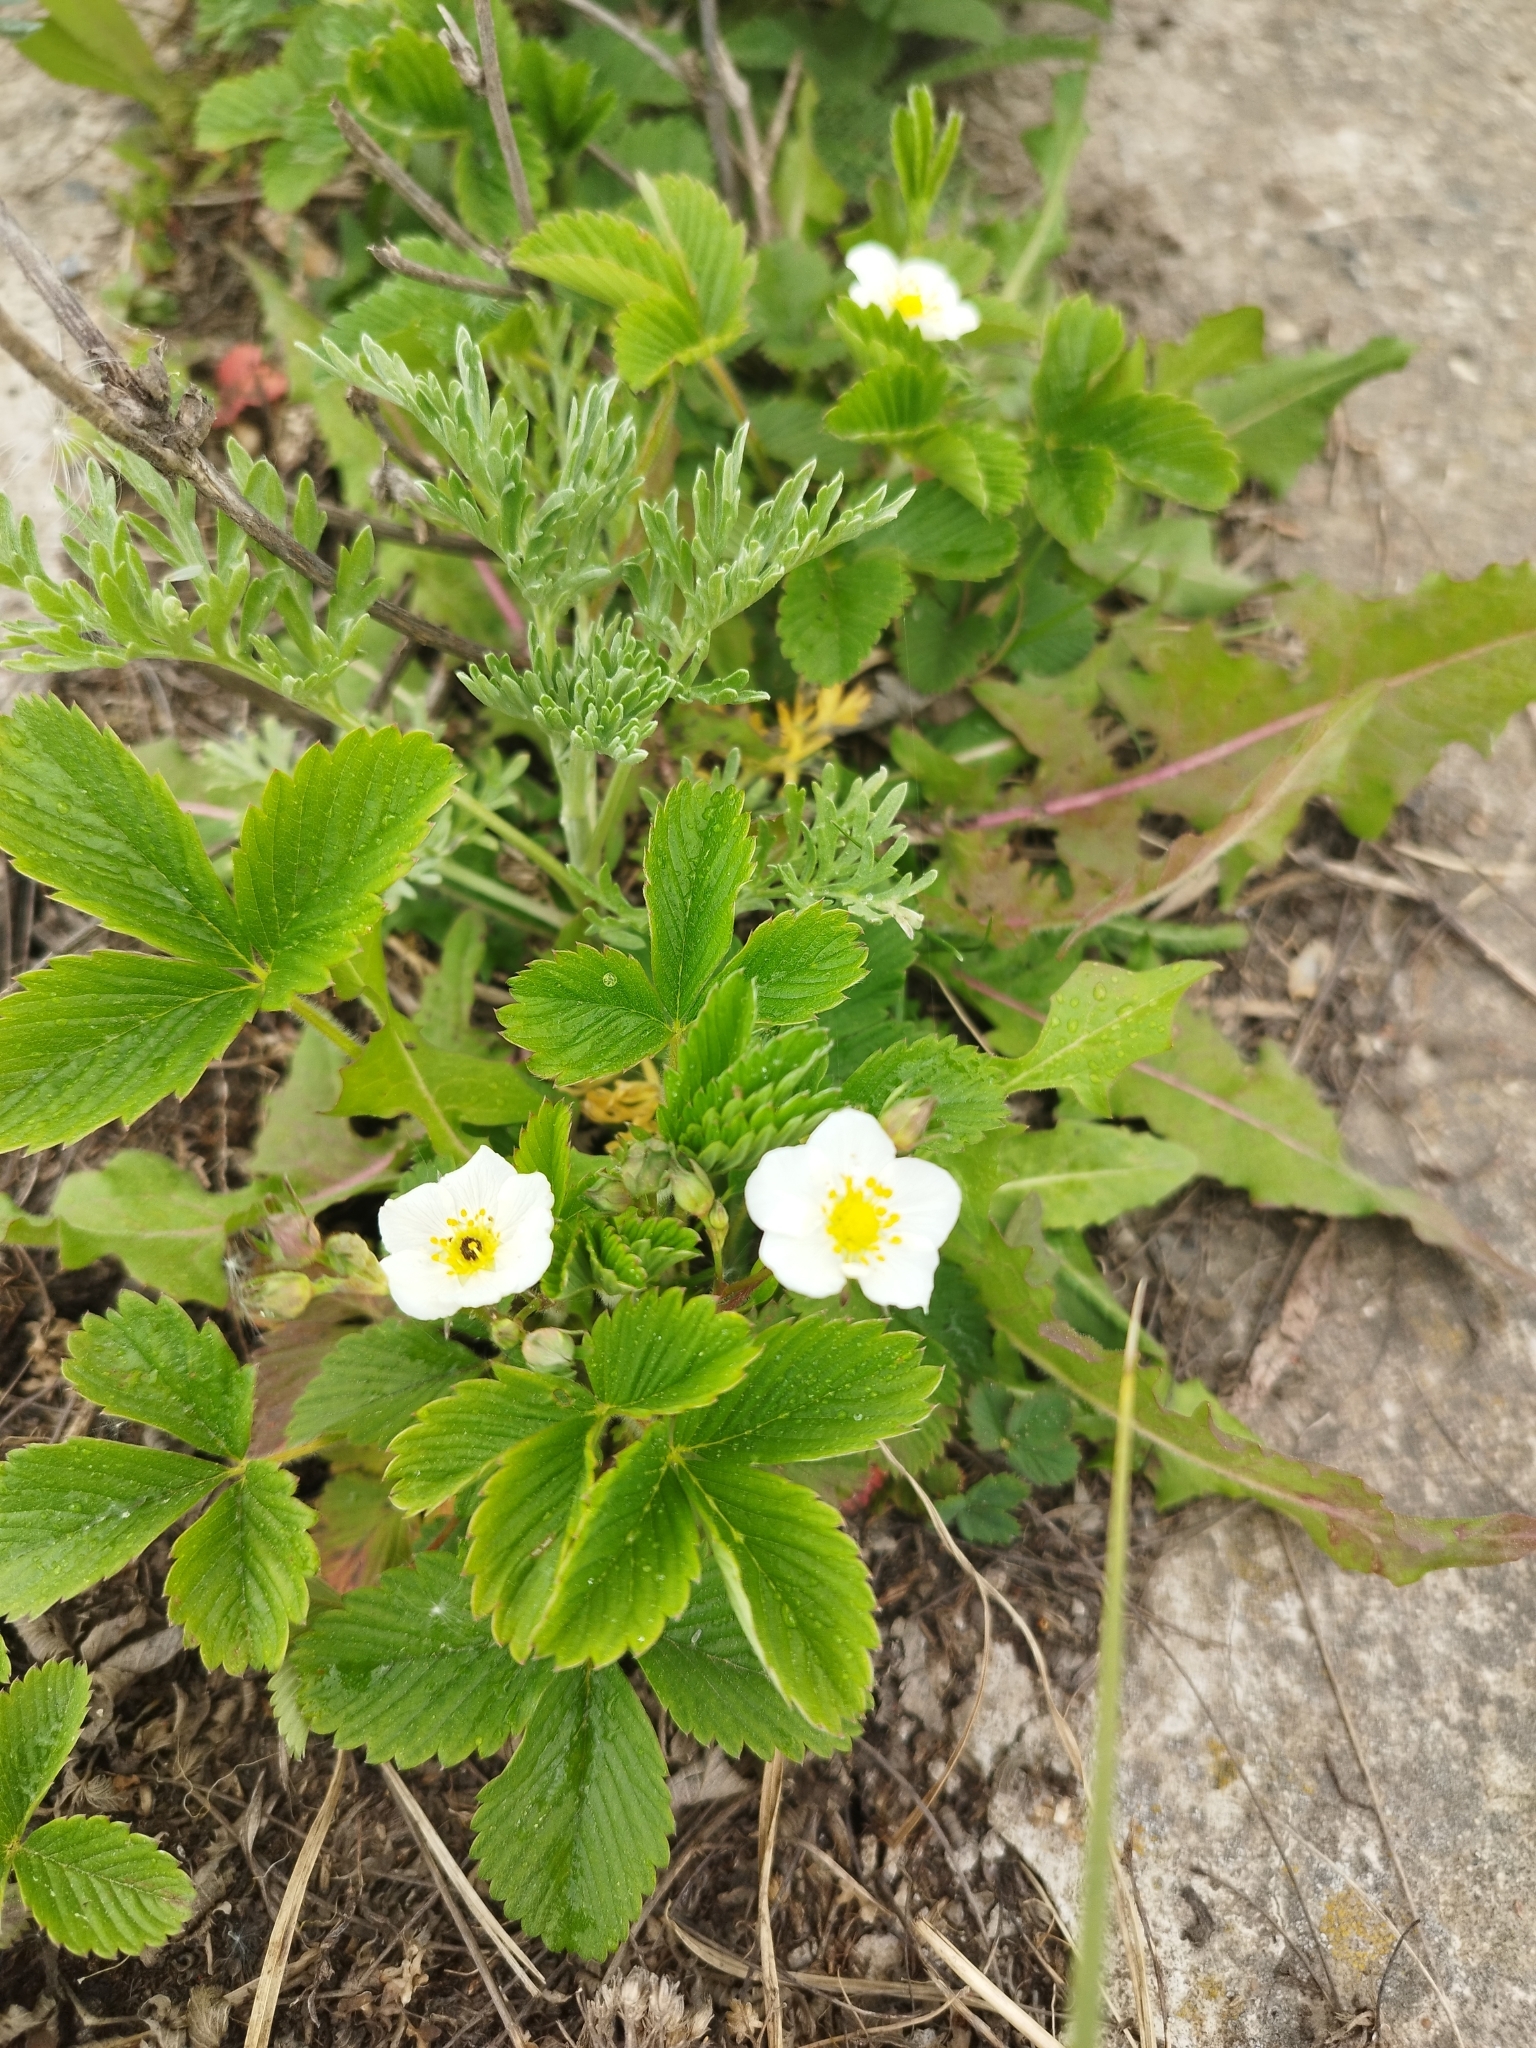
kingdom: Plantae
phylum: Tracheophyta
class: Magnoliopsida
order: Rosales
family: Rosaceae
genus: Fragaria
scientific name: Fragaria viridis
